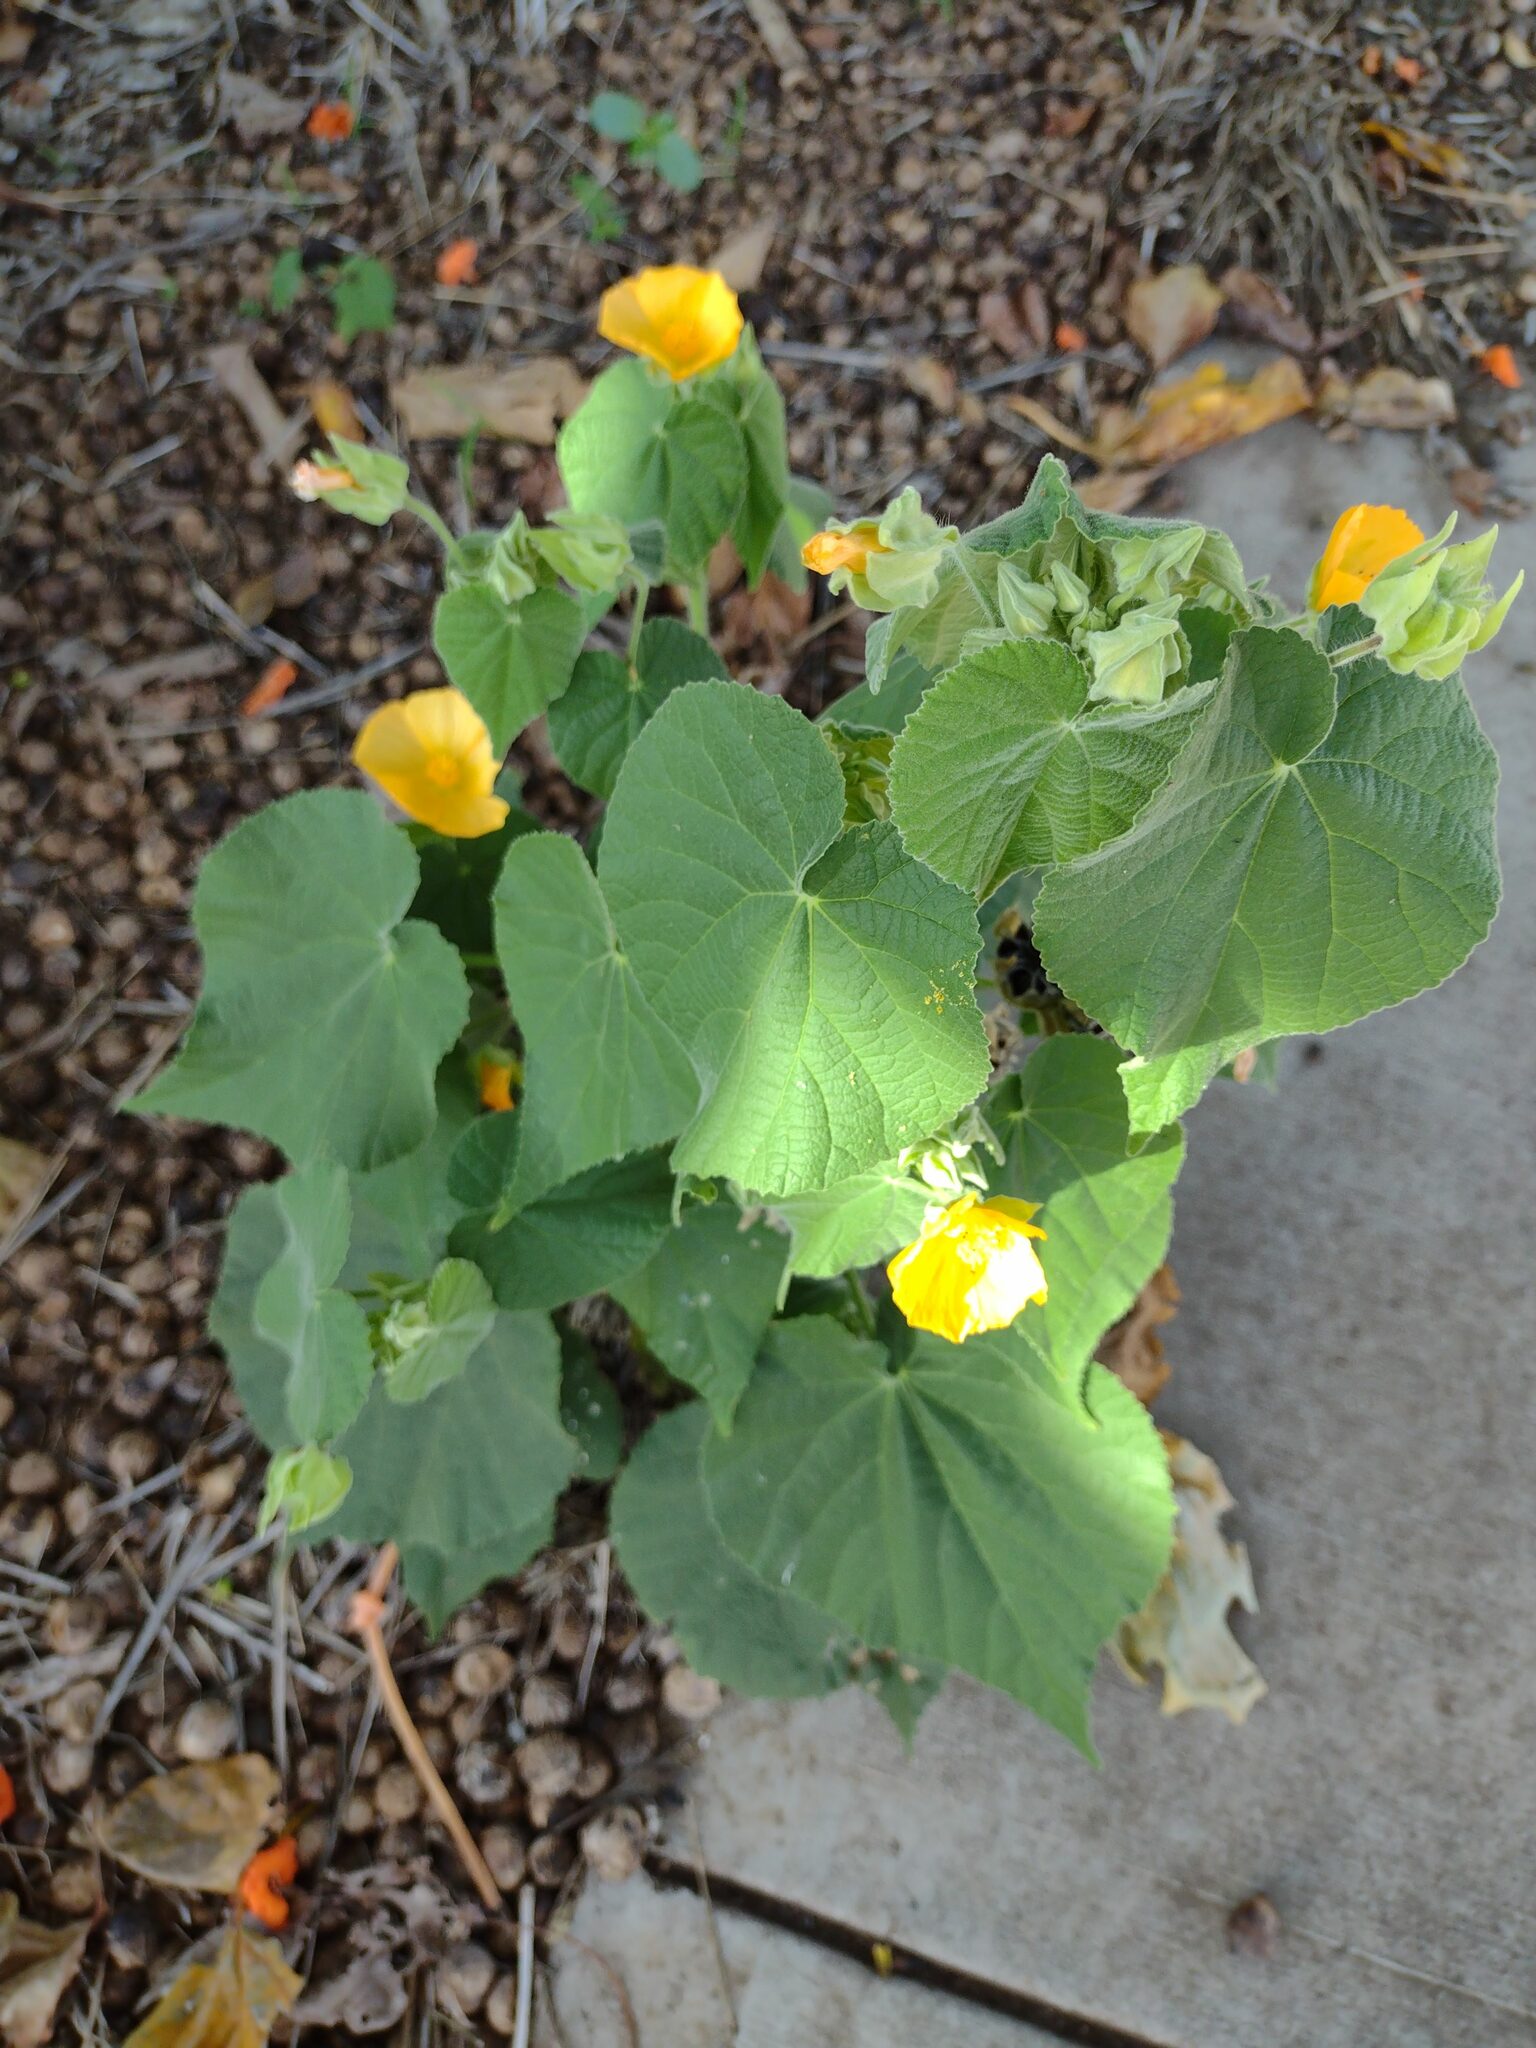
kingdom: Plantae
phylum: Tracheophyta
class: Magnoliopsida
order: Malvales
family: Malvaceae
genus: Abutilon
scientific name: Abutilon grandifolium
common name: Hairy abutilon
